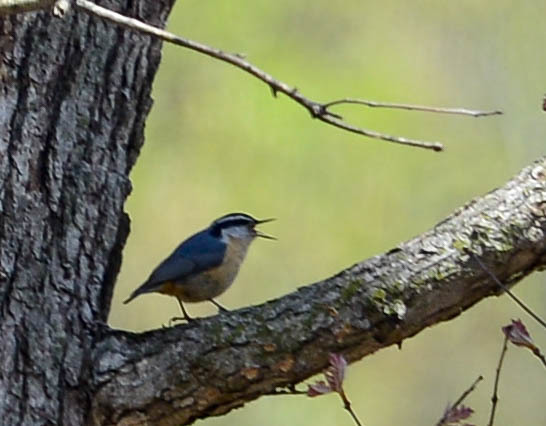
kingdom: Animalia
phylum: Chordata
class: Aves
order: Passeriformes
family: Sittidae
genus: Sitta
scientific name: Sitta canadensis
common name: Red-breasted nuthatch
